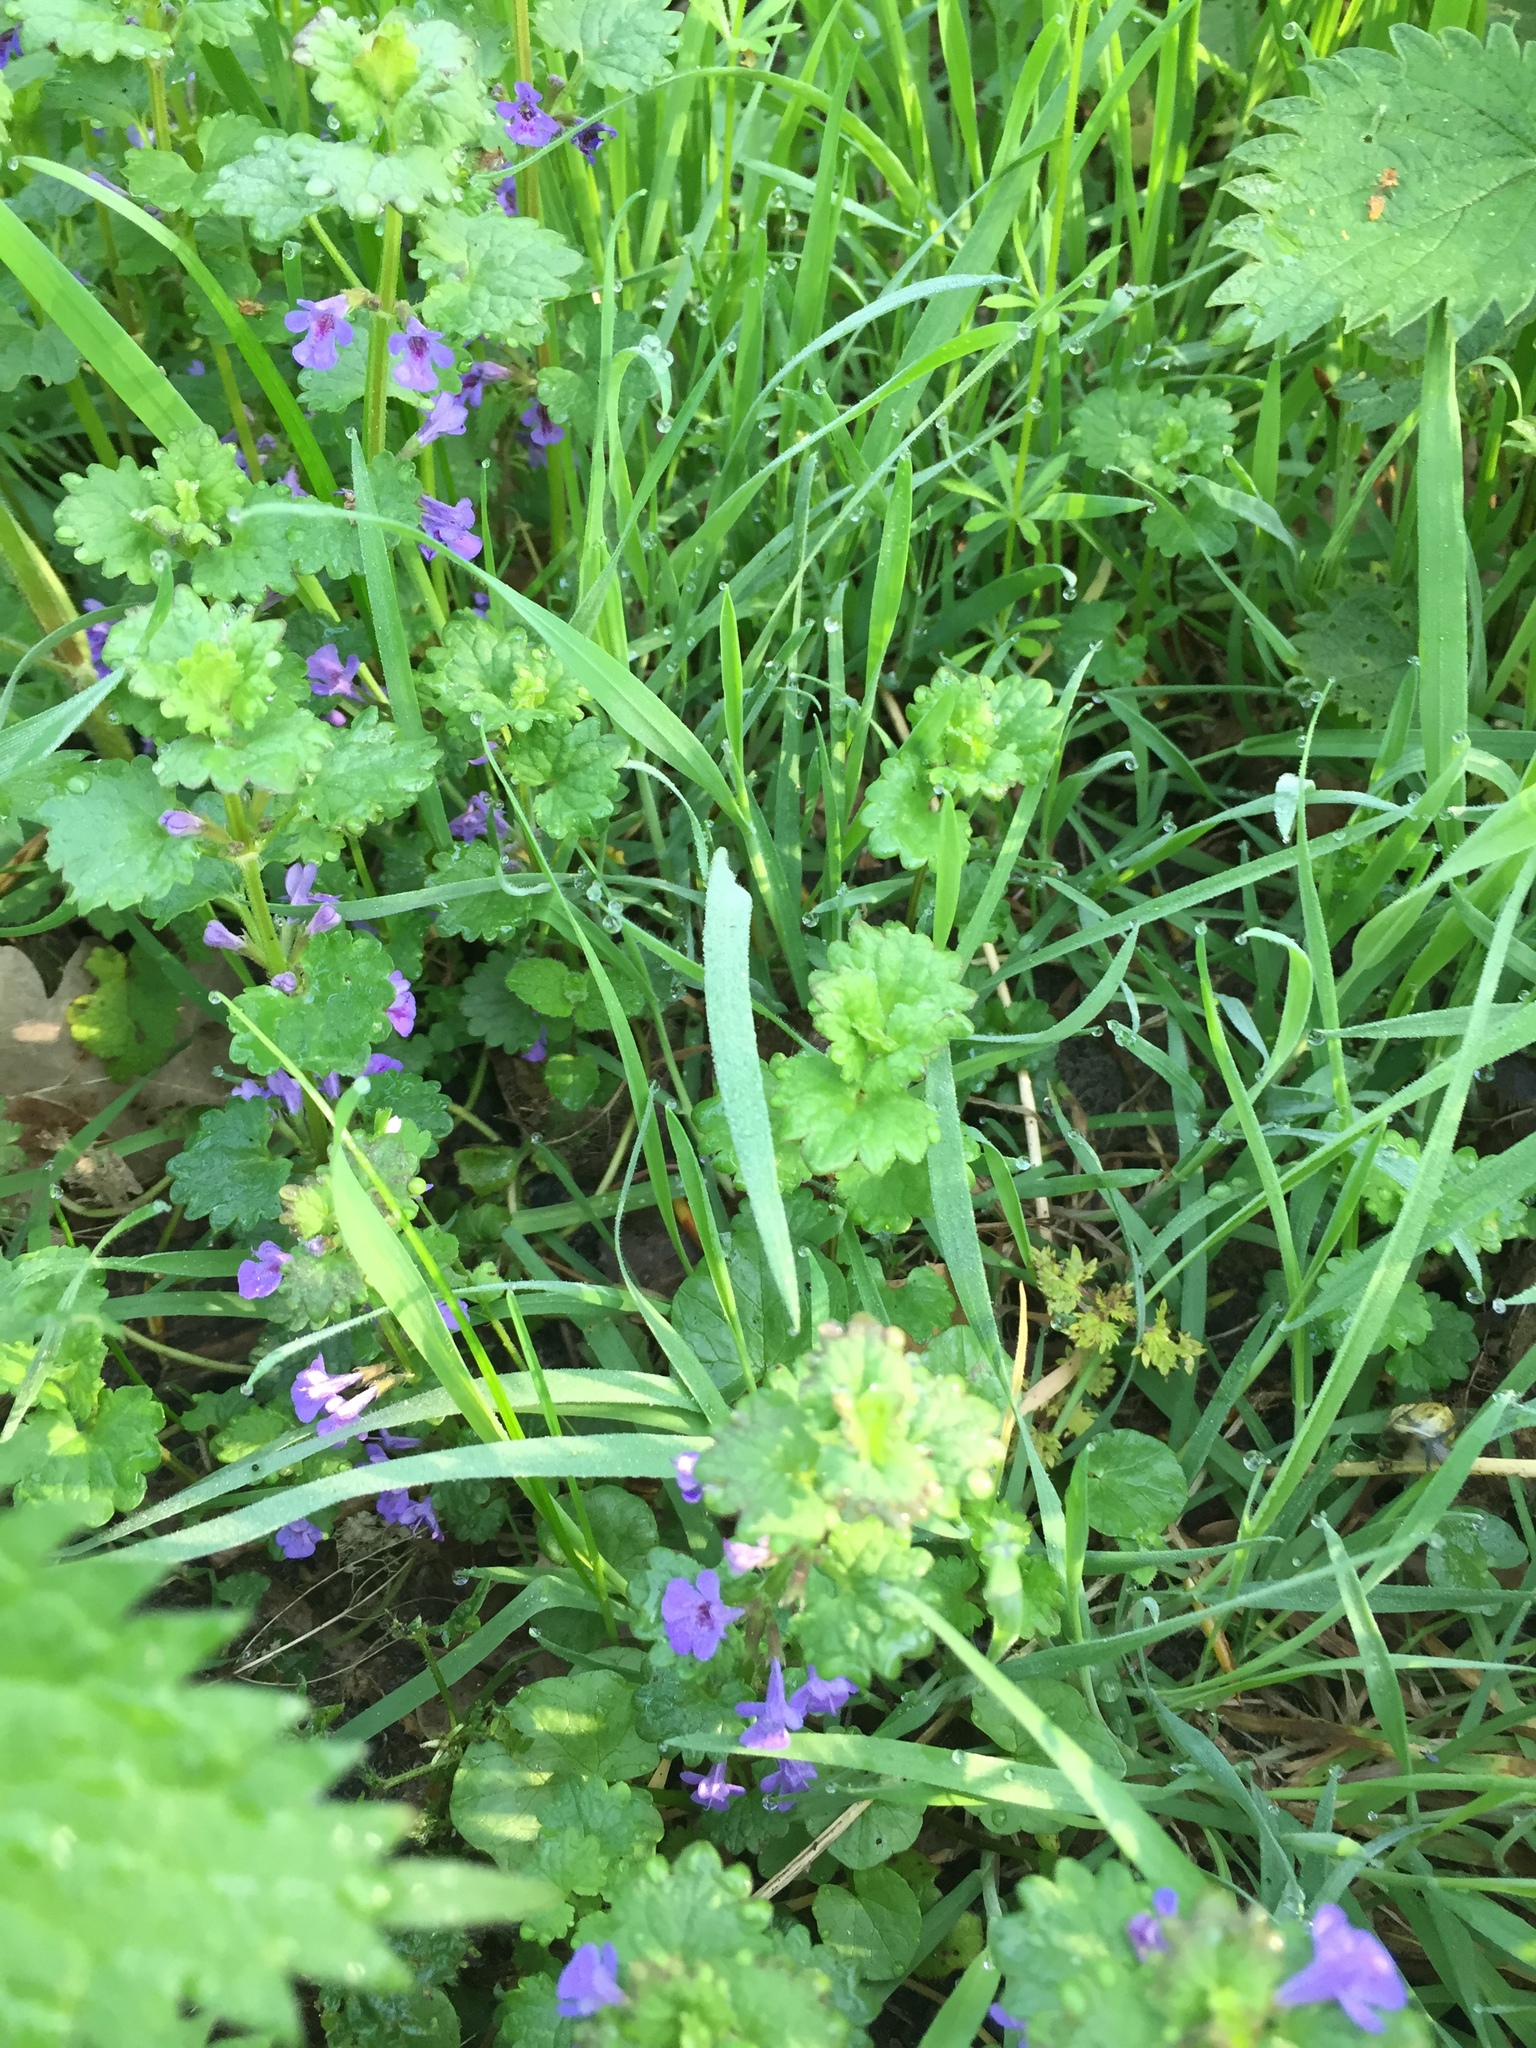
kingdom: Plantae
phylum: Tracheophyta
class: Magnoliopsida
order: Lamiales
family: Lamiaceae
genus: Glechoma
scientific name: Glechoma hederacea
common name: Ground ivy
